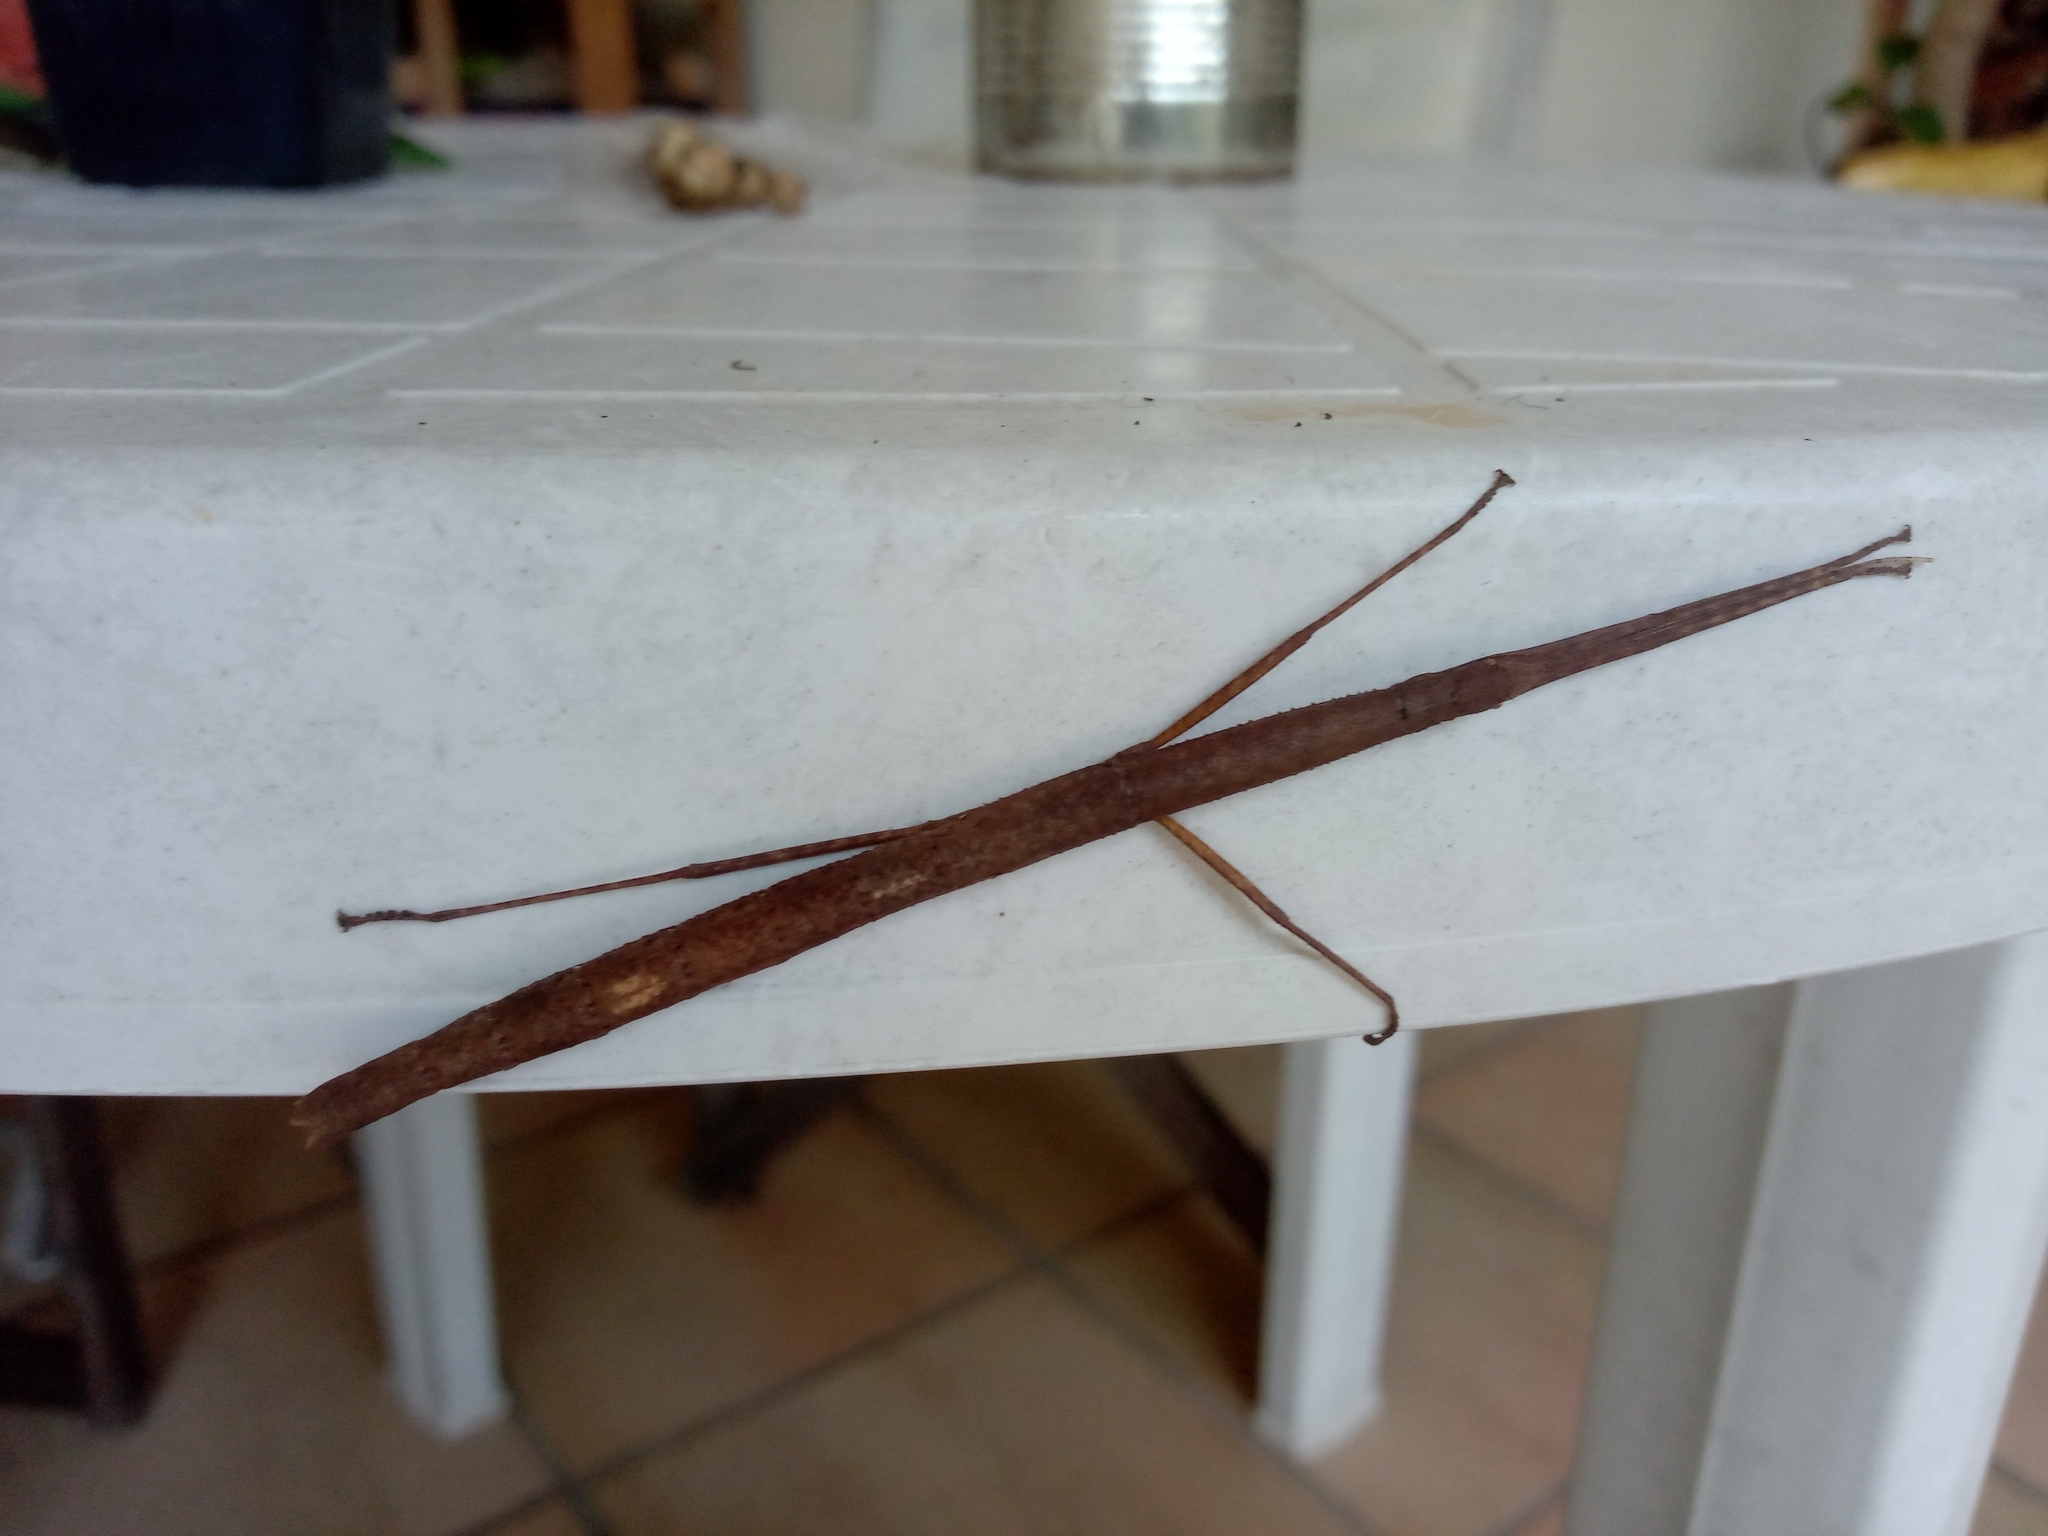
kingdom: Animalia
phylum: Arthropoda
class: Insecta
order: Phasmida
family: Lonchodidae
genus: Carausius
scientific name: Carausius morosus
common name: Indian stick insect
